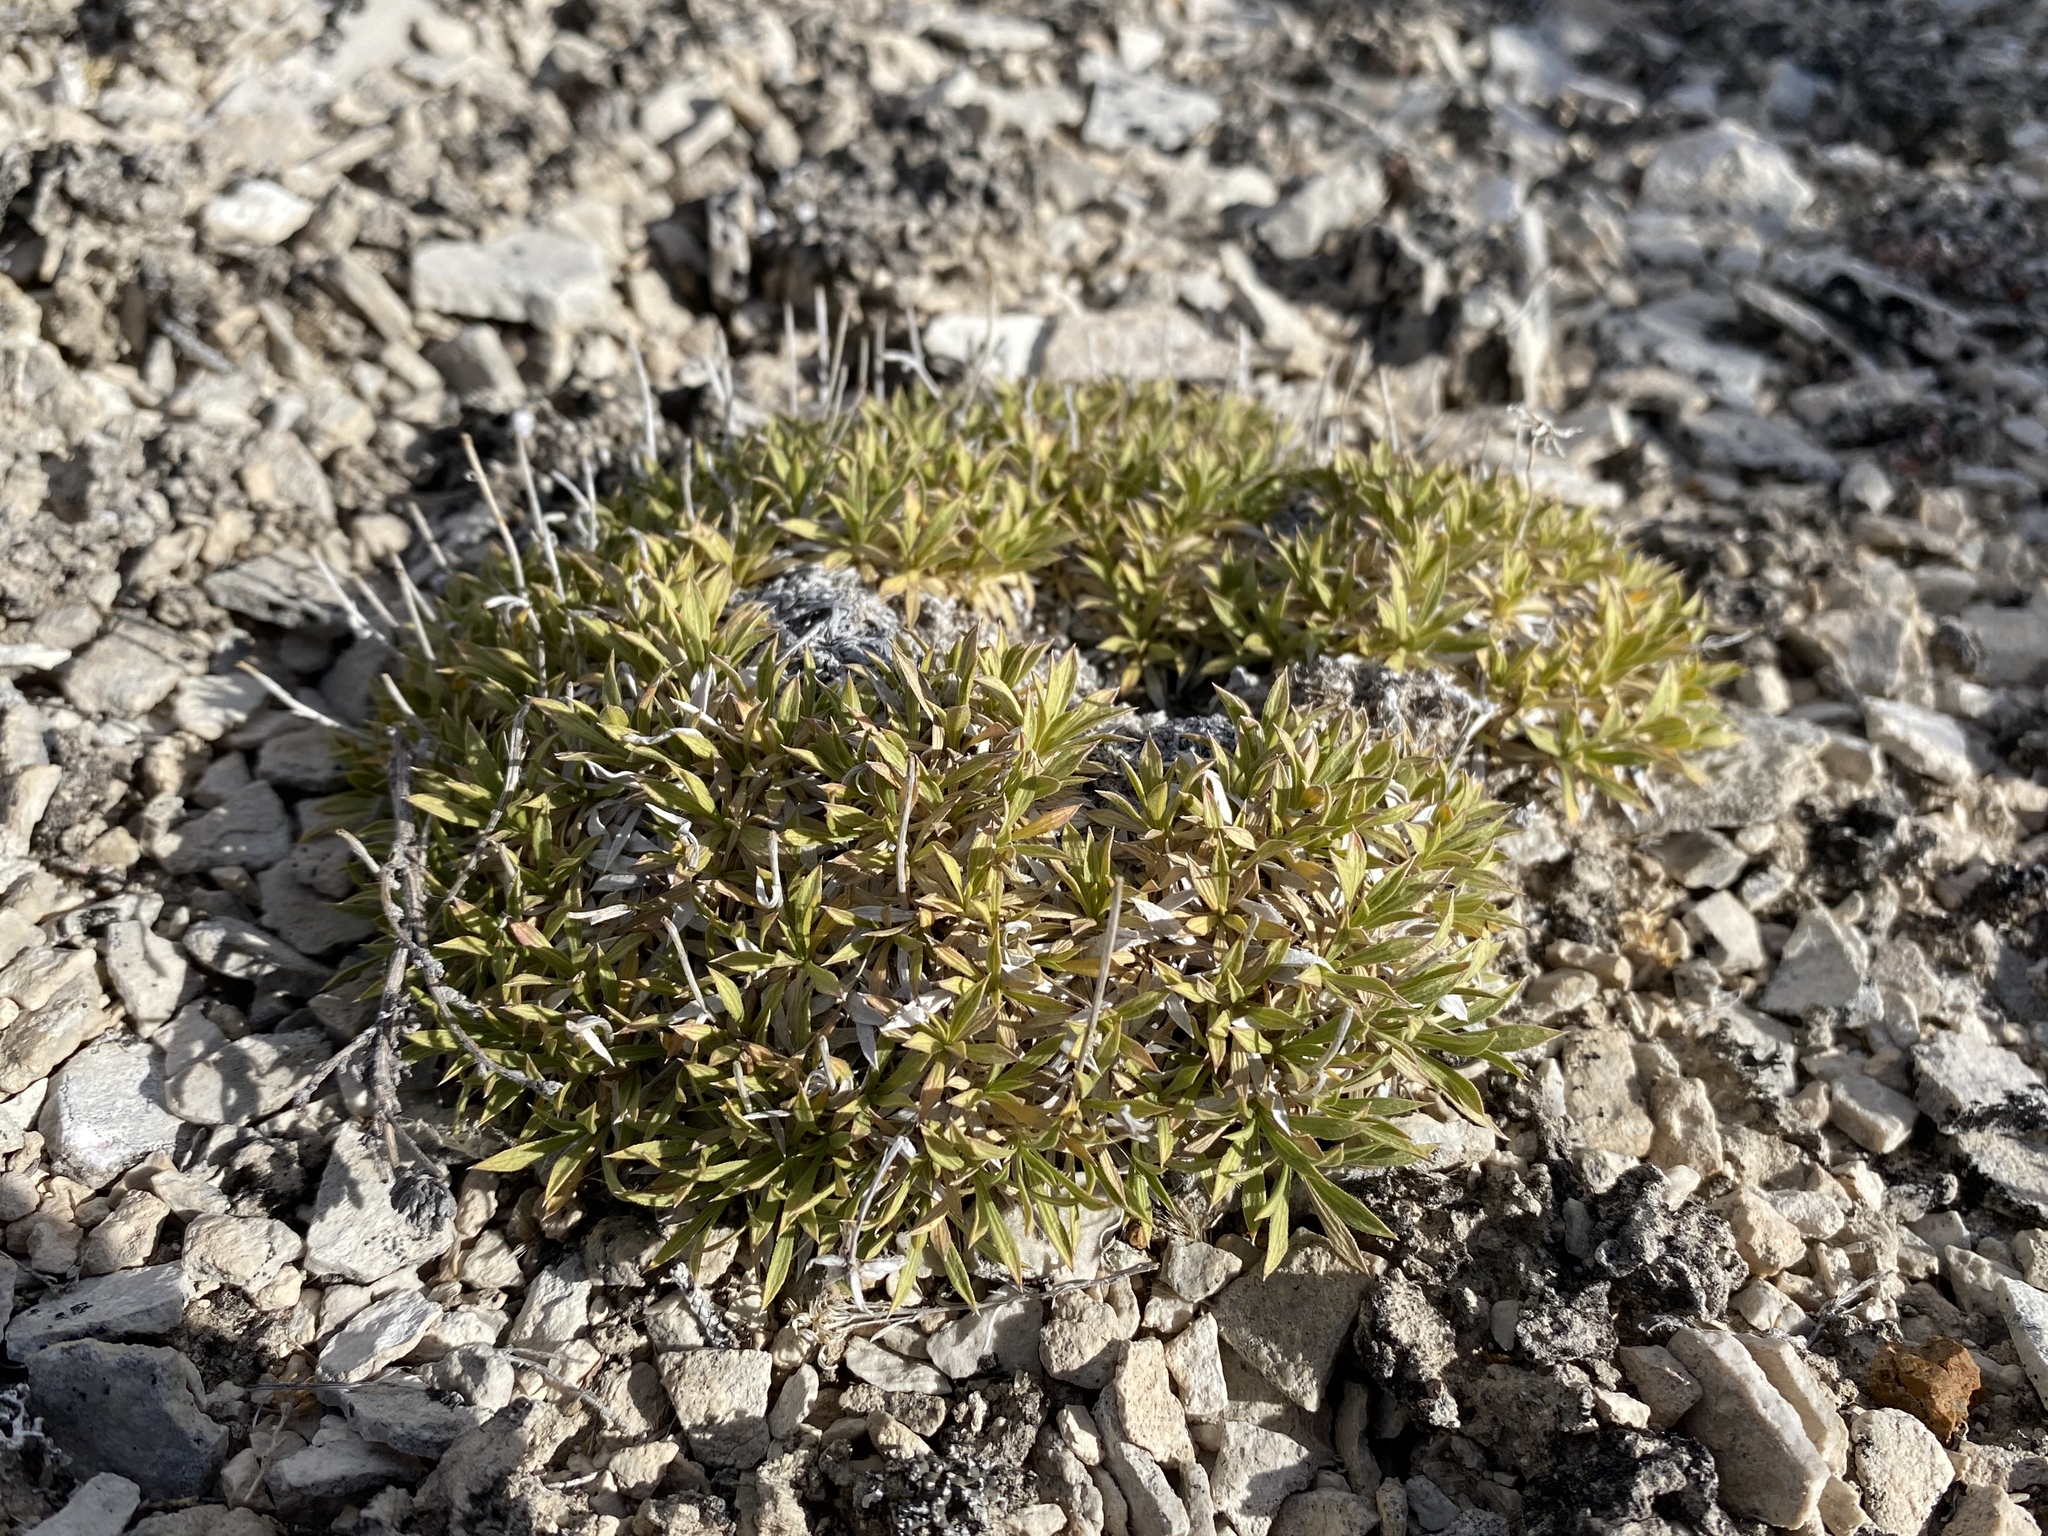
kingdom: Plantae
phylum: Tracheophyta
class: Magnoliopsida
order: Asterales
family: Asteraceae
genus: Stenotus
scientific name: Stenotus acaulis
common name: Stemless goldenweed
